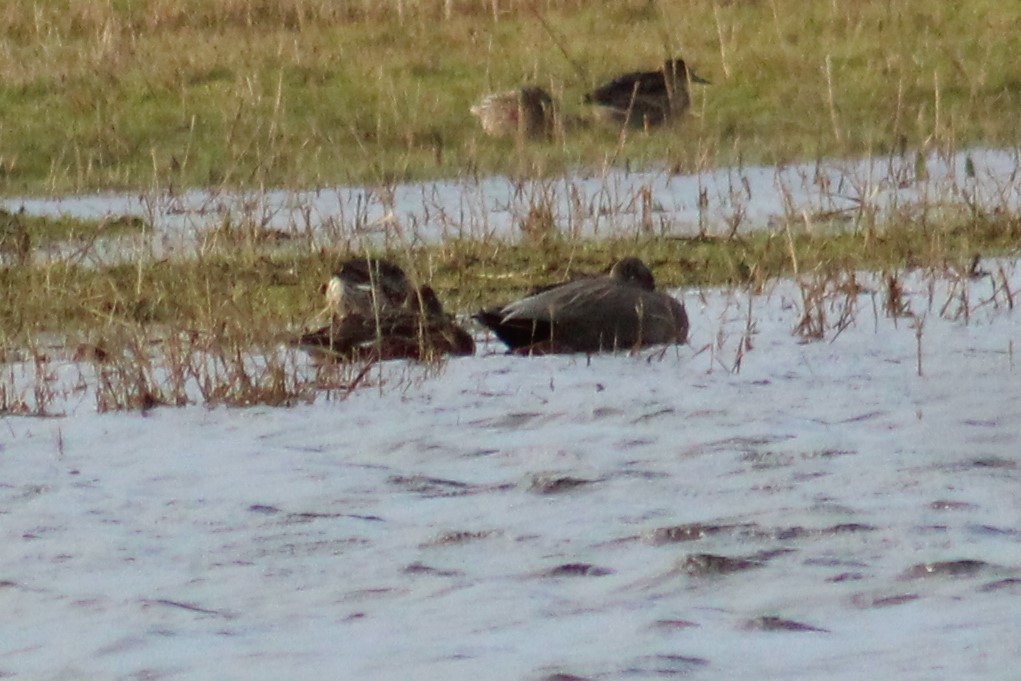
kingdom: Animalia
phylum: Chordata
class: Aves
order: Anseriformes
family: Anatidae
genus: Mareca
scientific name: Mareca strepera
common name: Gadwall
